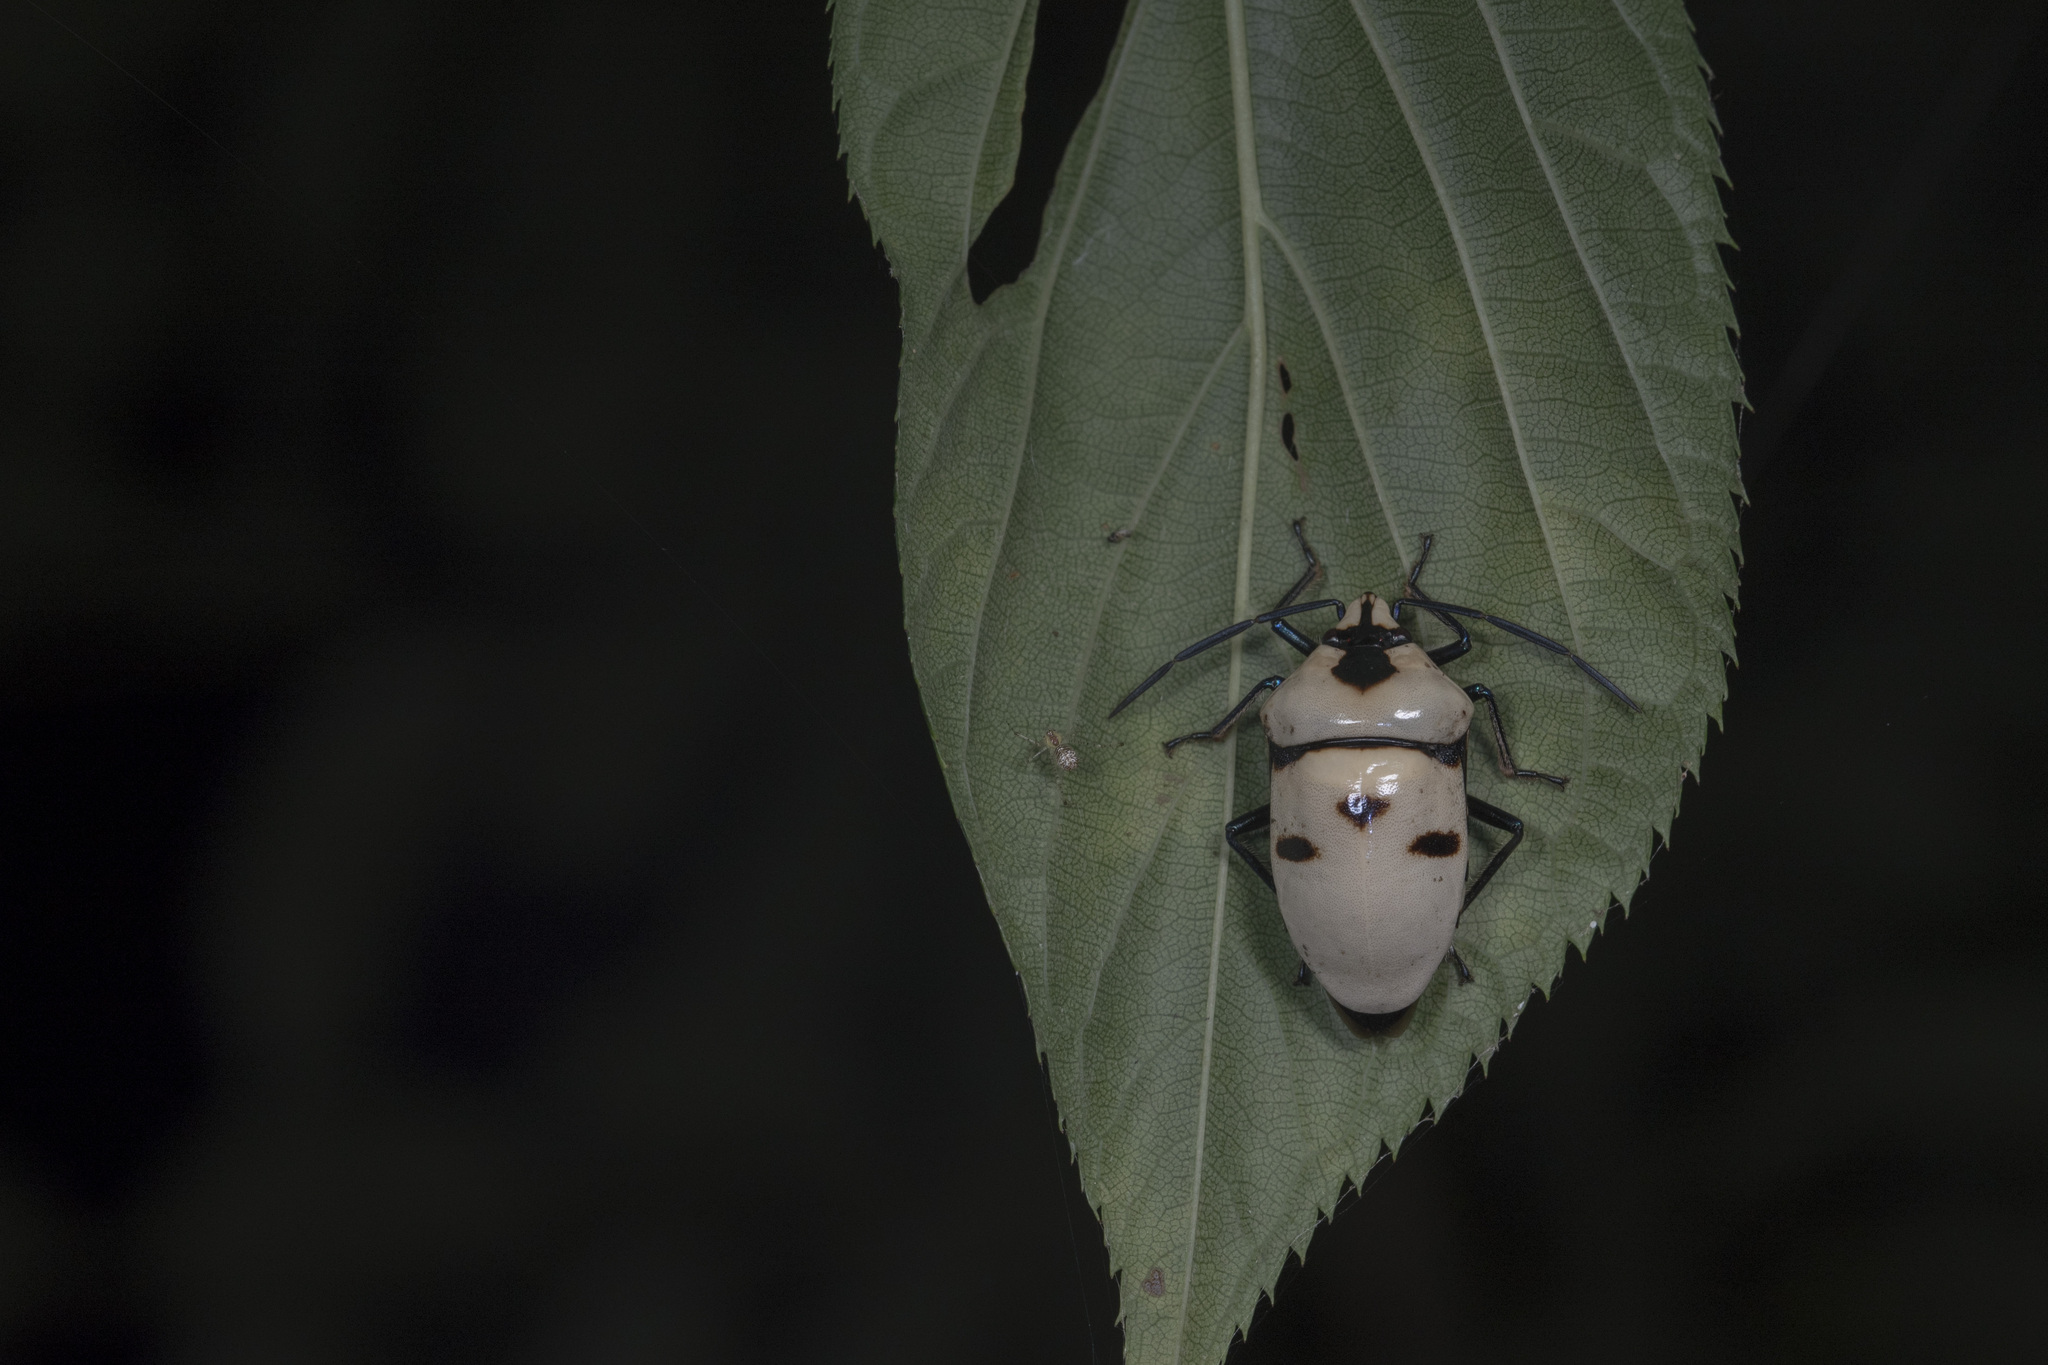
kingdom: Animalia
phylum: Arthropoda
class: Insecta
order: Hemiptera
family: Scutelleridae
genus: Eucorysses
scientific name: Eucorysses grandis
